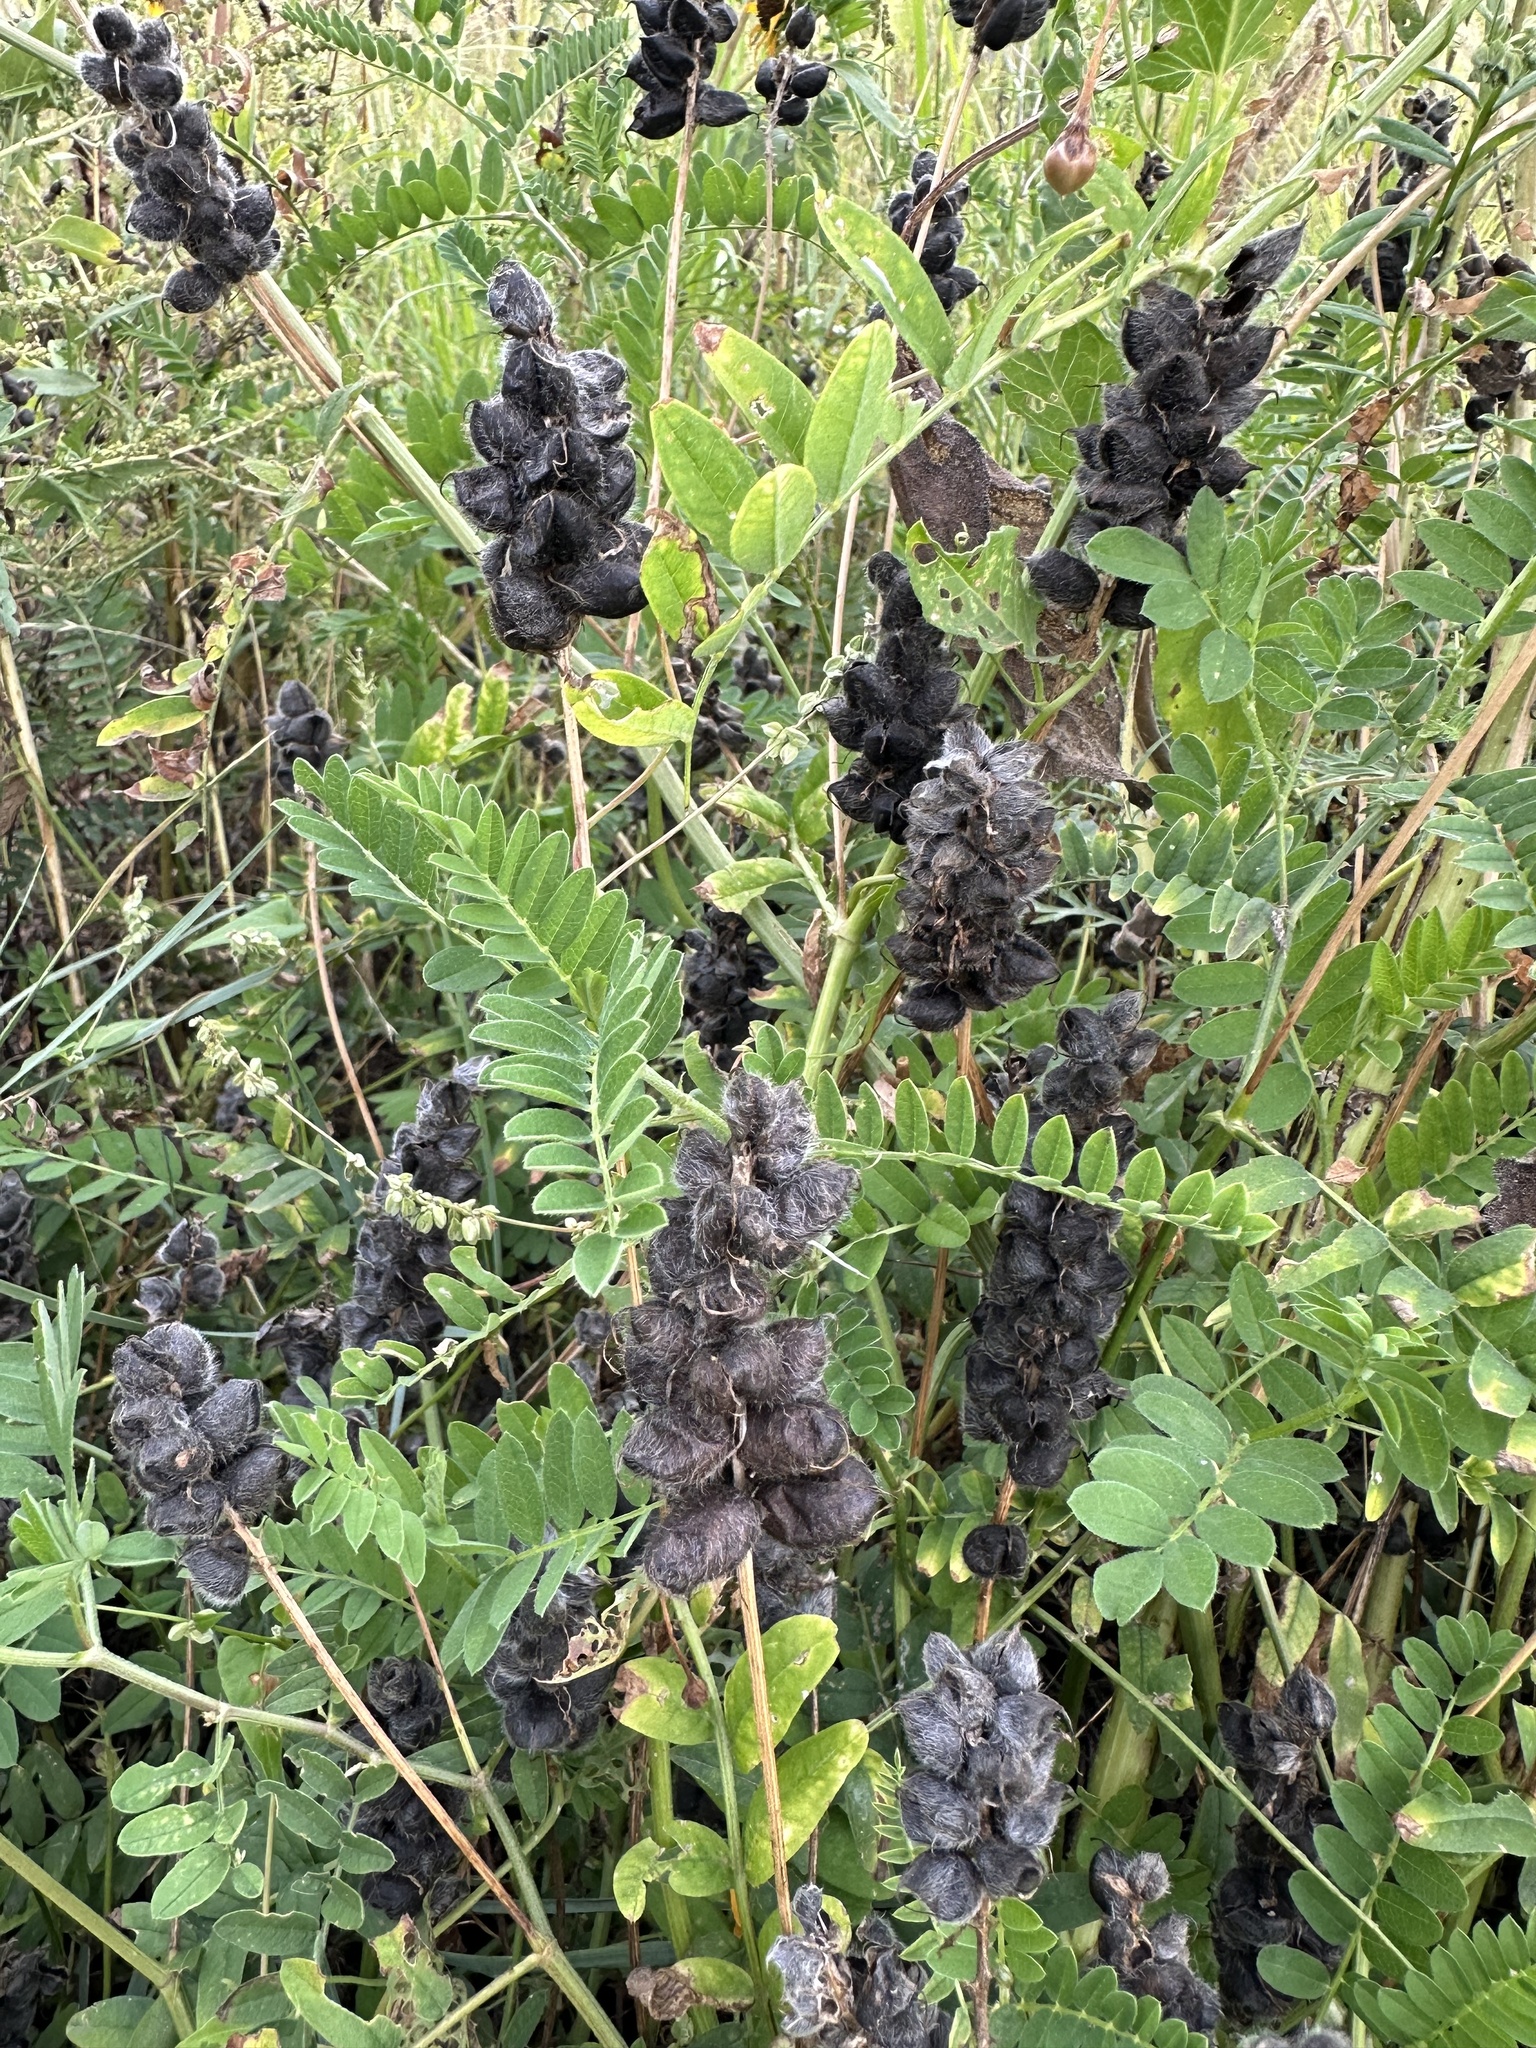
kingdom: Plantae
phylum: Tracheophyta
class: Magnoliopsida
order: Fabales
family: Fabaceae
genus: Astragalus
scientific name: Astragalus cicer
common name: Chick-pea milk-vetch
